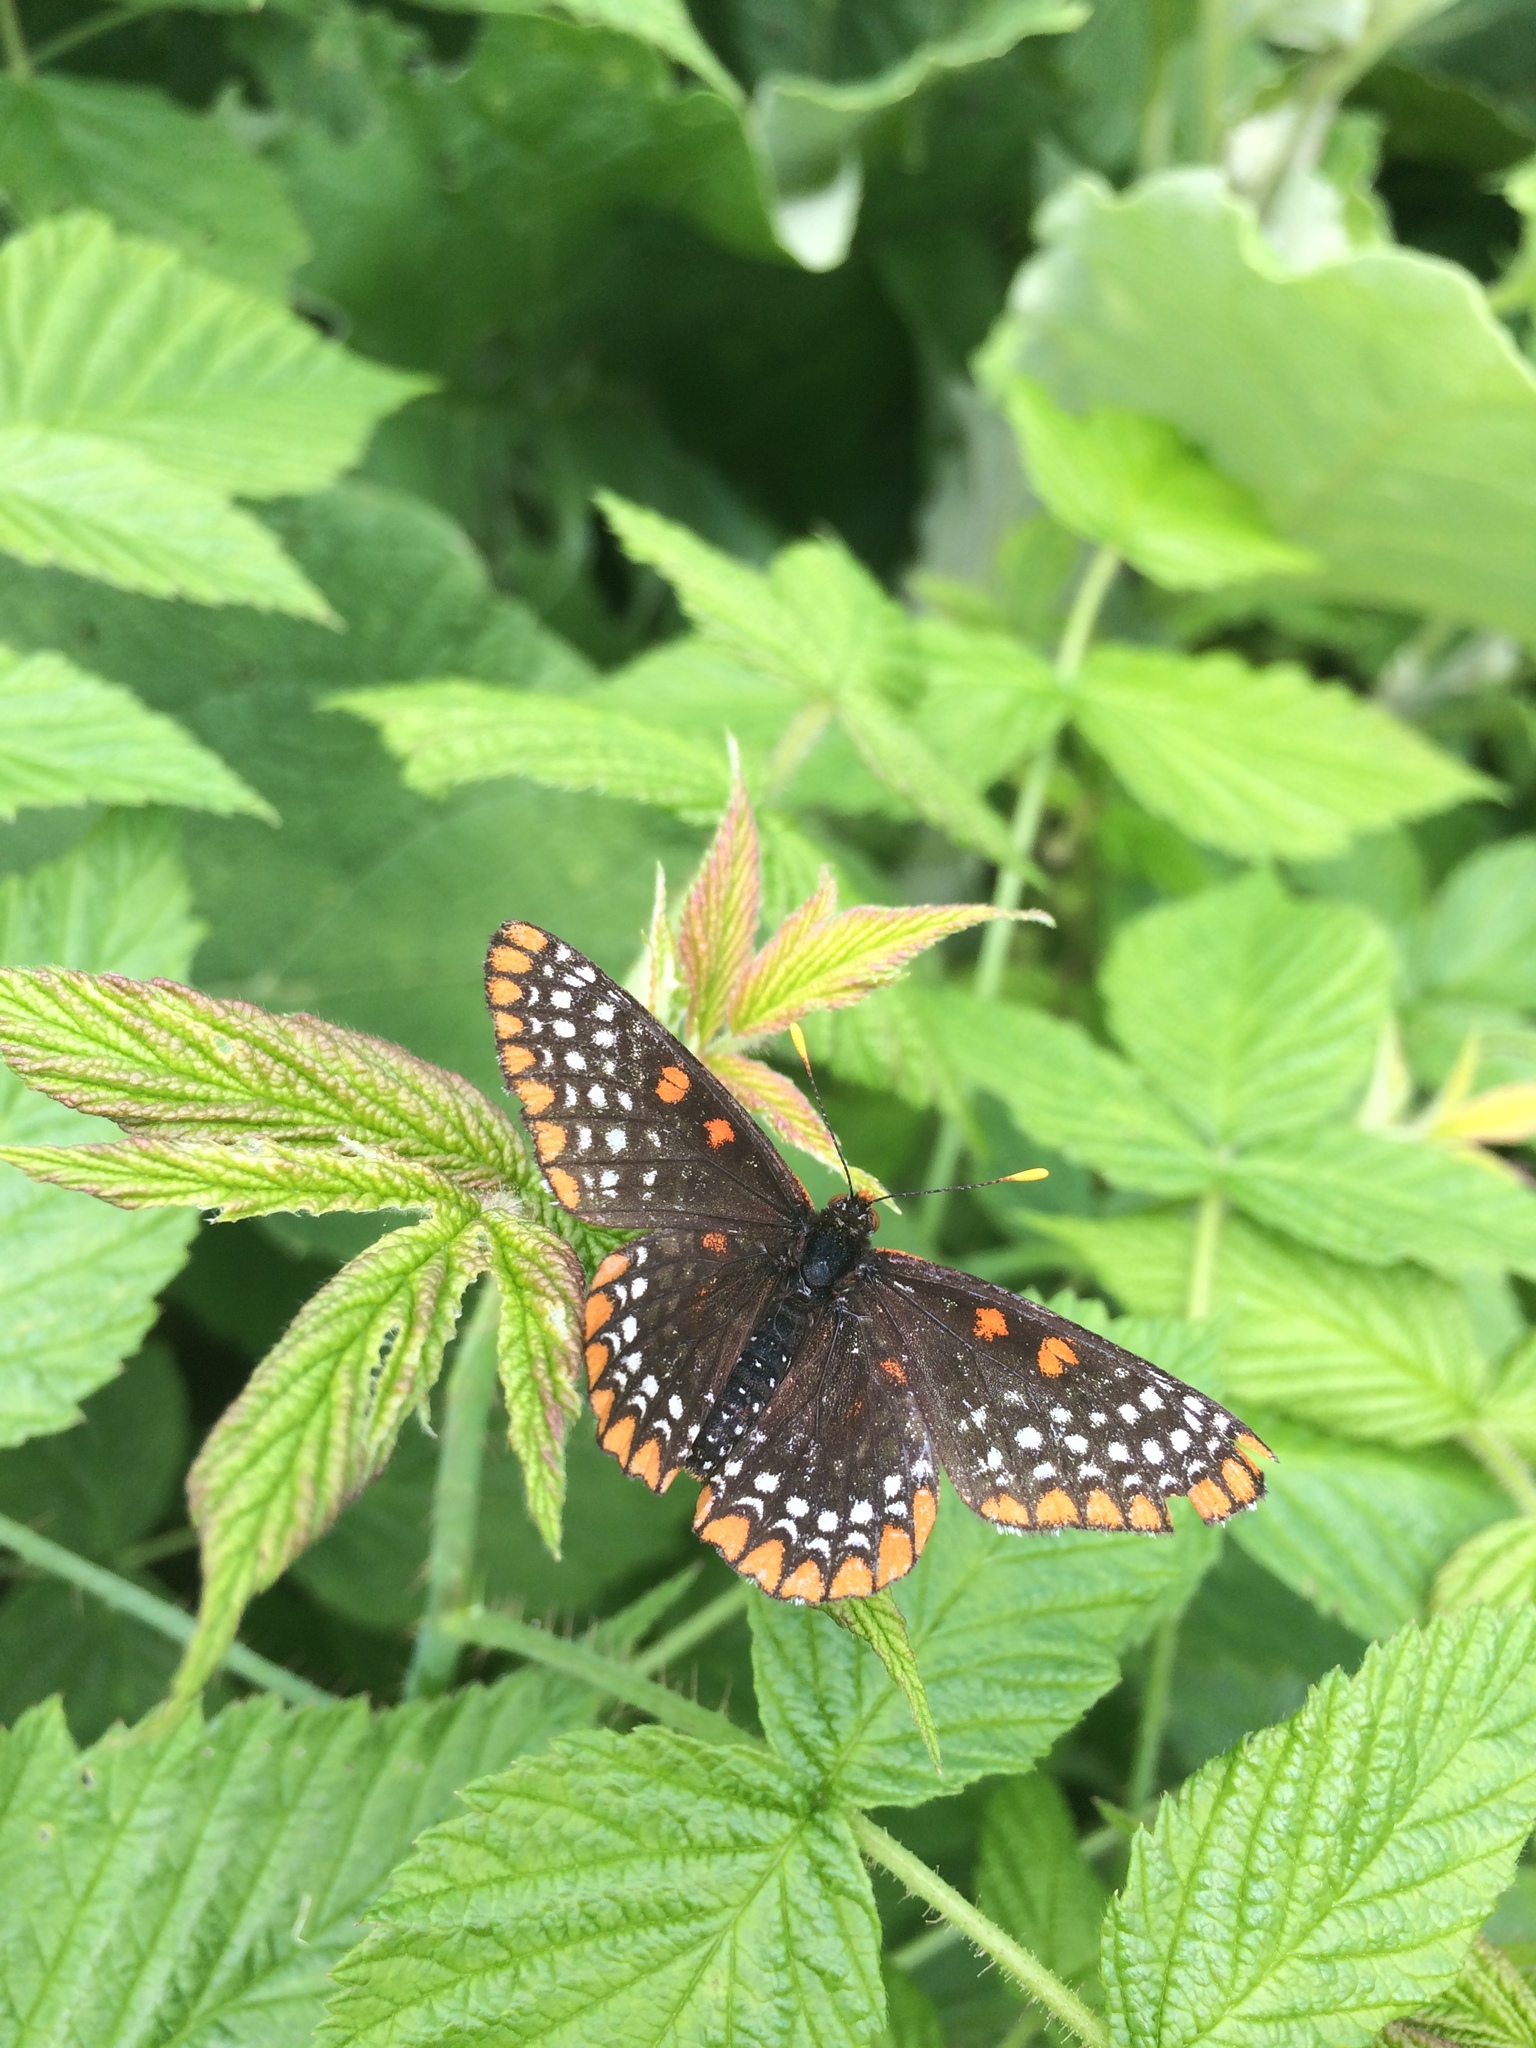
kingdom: Animalia
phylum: Arthropoda
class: Insecta
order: Lepidoptera
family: Nymphalidae
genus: Euphydryas
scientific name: Euphydryas phaeton
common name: Baltimore checkerspot
